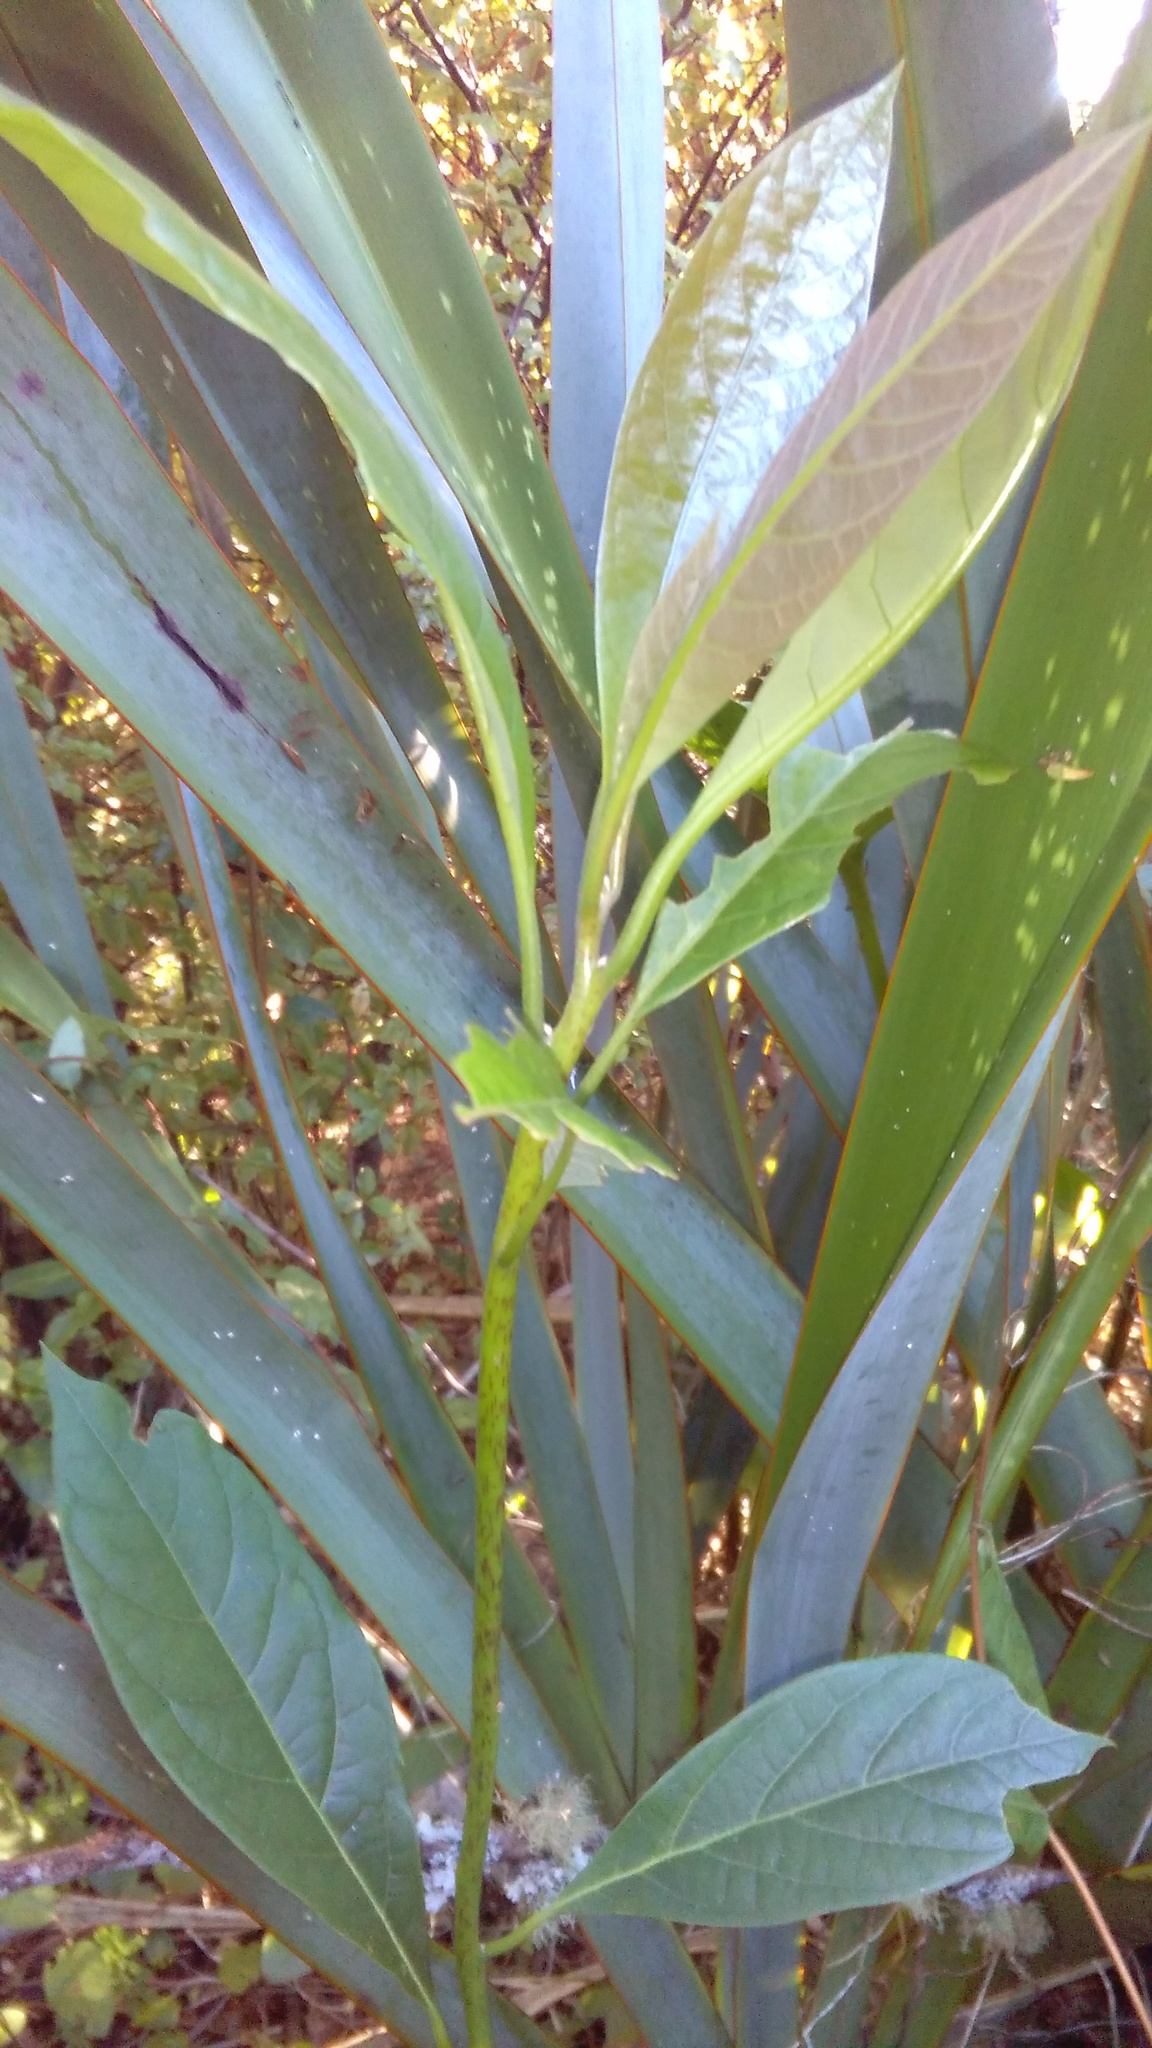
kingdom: Plantae
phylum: Tracheophyta
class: Magnoliopsida
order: Laurales
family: Lauraceae
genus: Persea
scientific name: Persea americana
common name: Avocado
